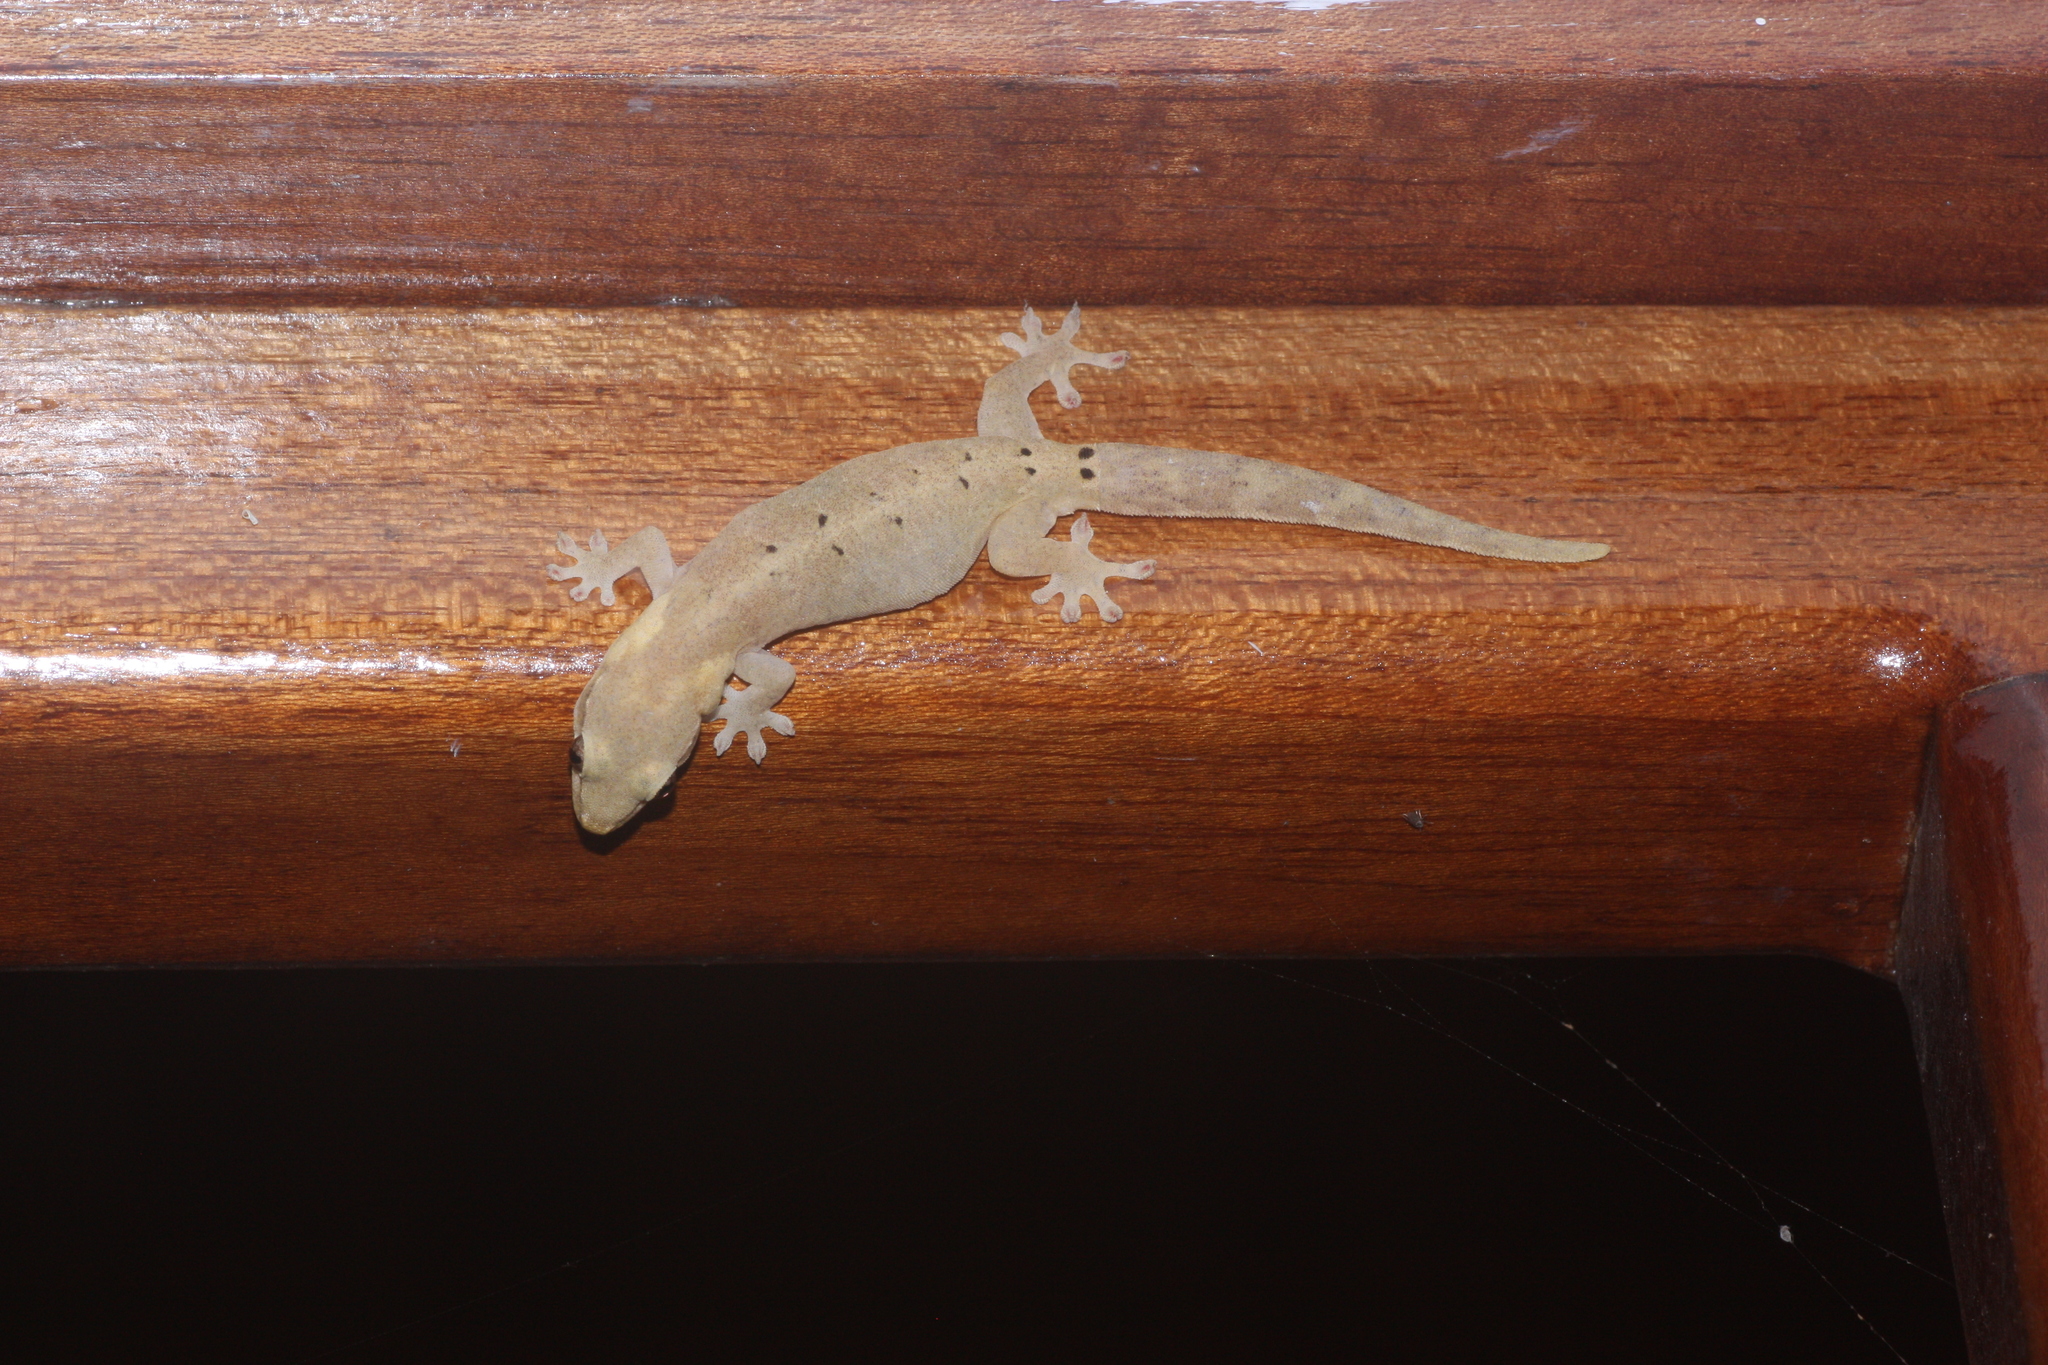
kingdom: Animalia
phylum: Chordata
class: Squamata
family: Gekkonidae
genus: Lepidodactylus
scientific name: Lepidodactylus lugubris
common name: Mourning gecko
